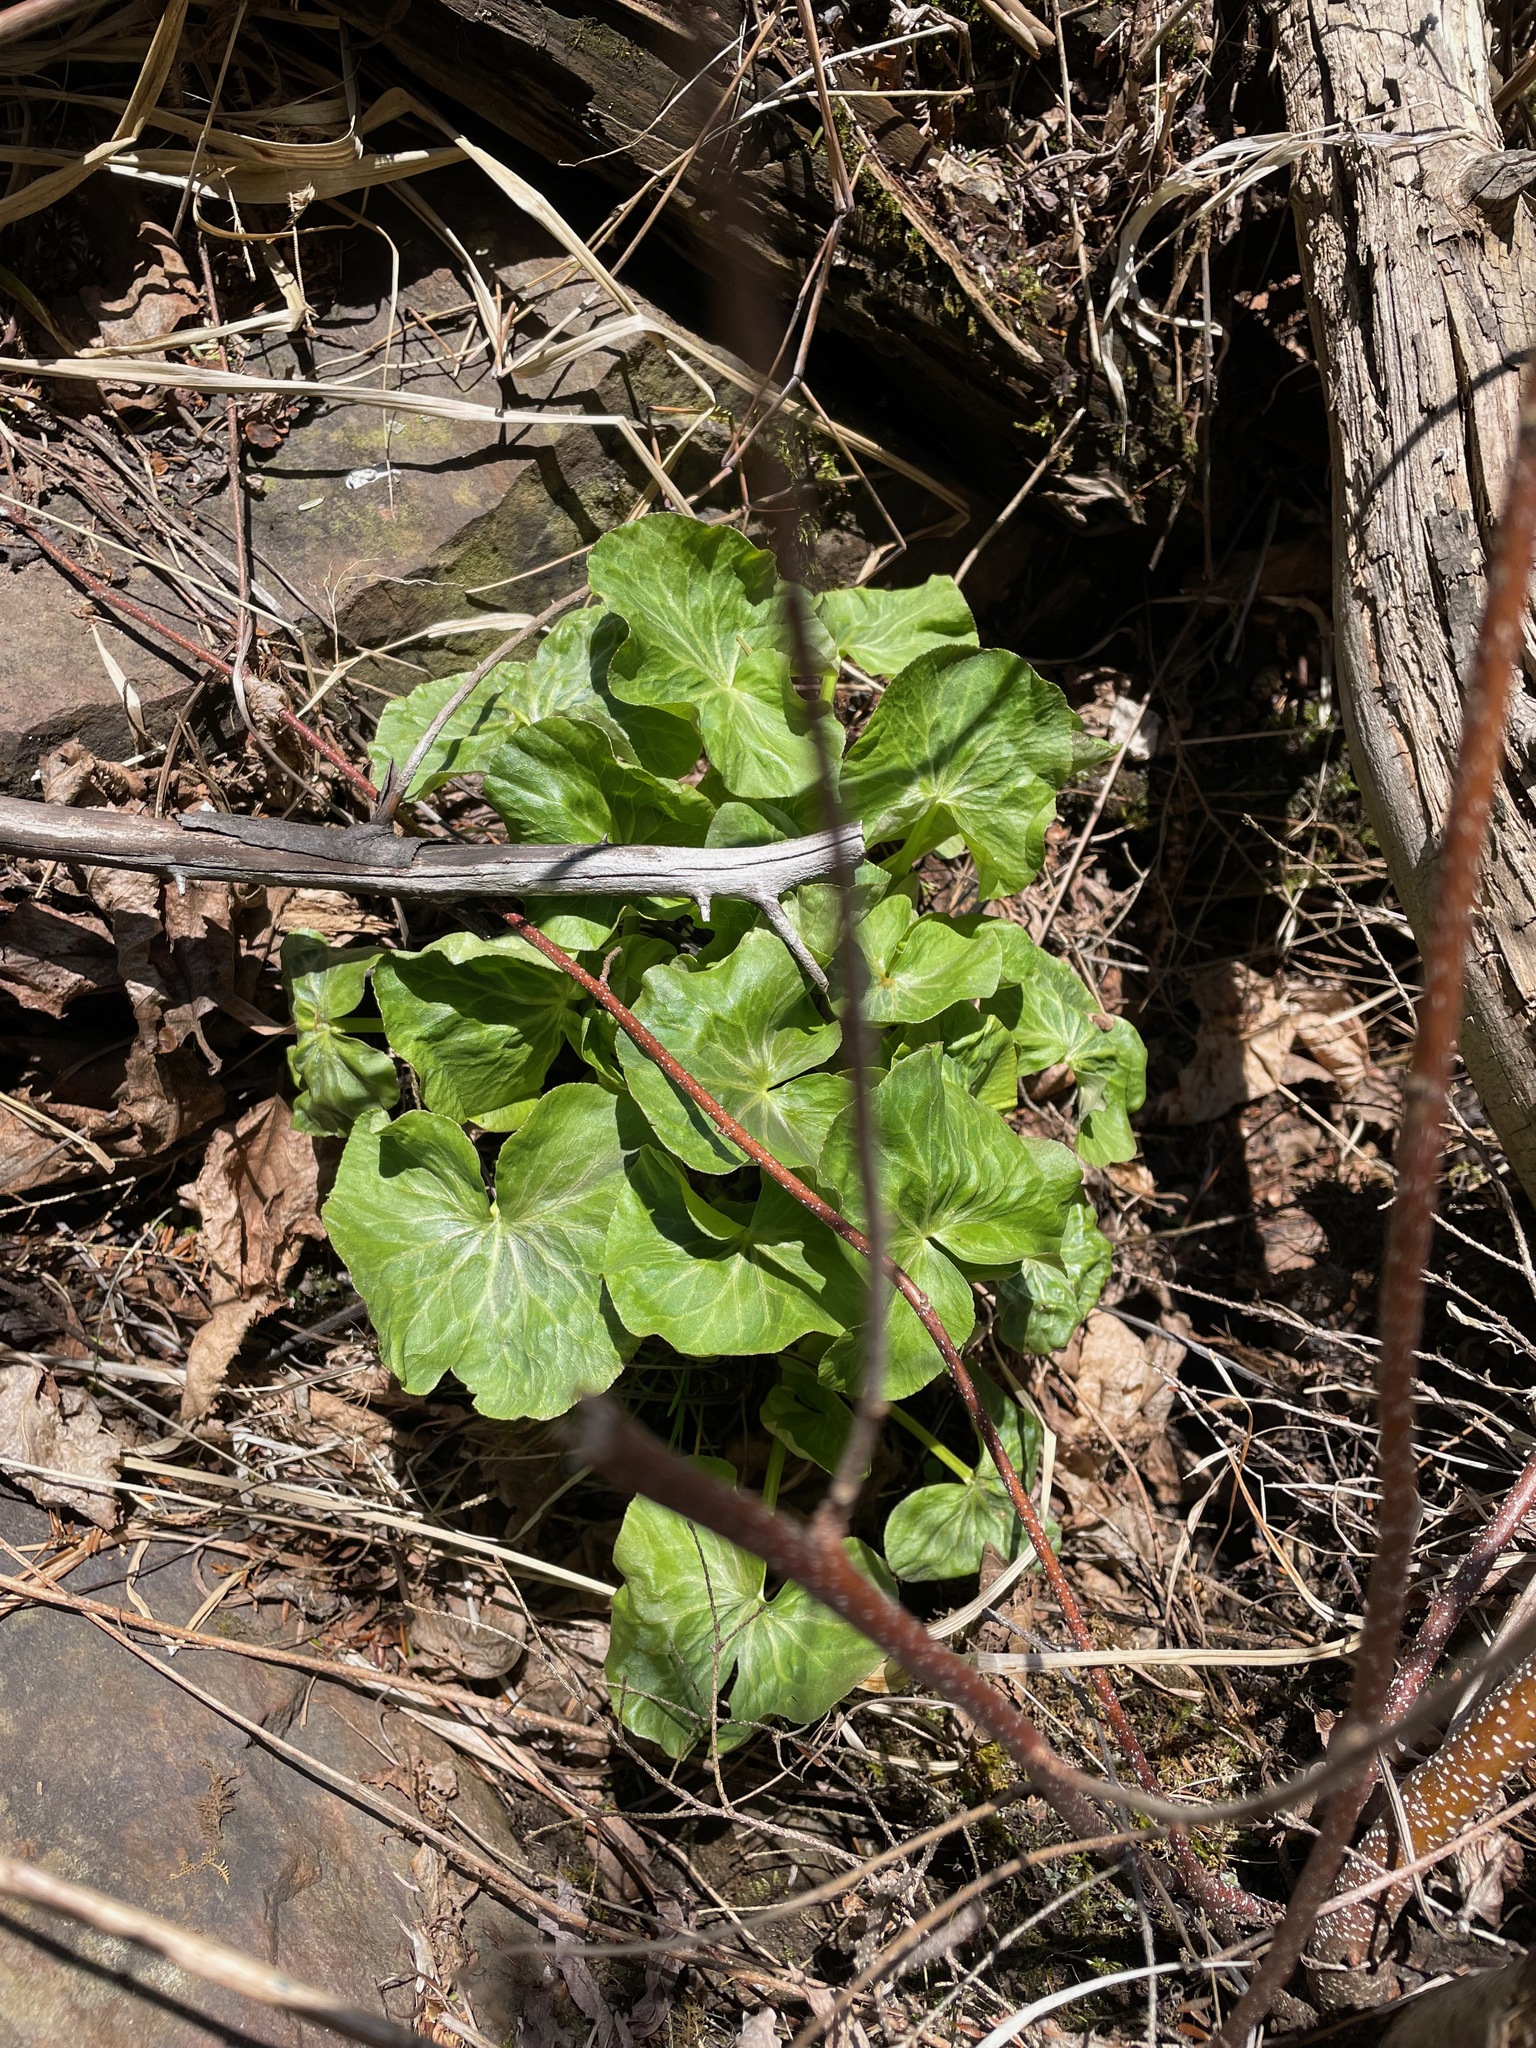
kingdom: Plantae
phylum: Tracheophyta
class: Magnoliopsida
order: Ranunculales
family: Ranunculaceae
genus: Caltha
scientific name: Caltha palustris
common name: Marsh marigold
